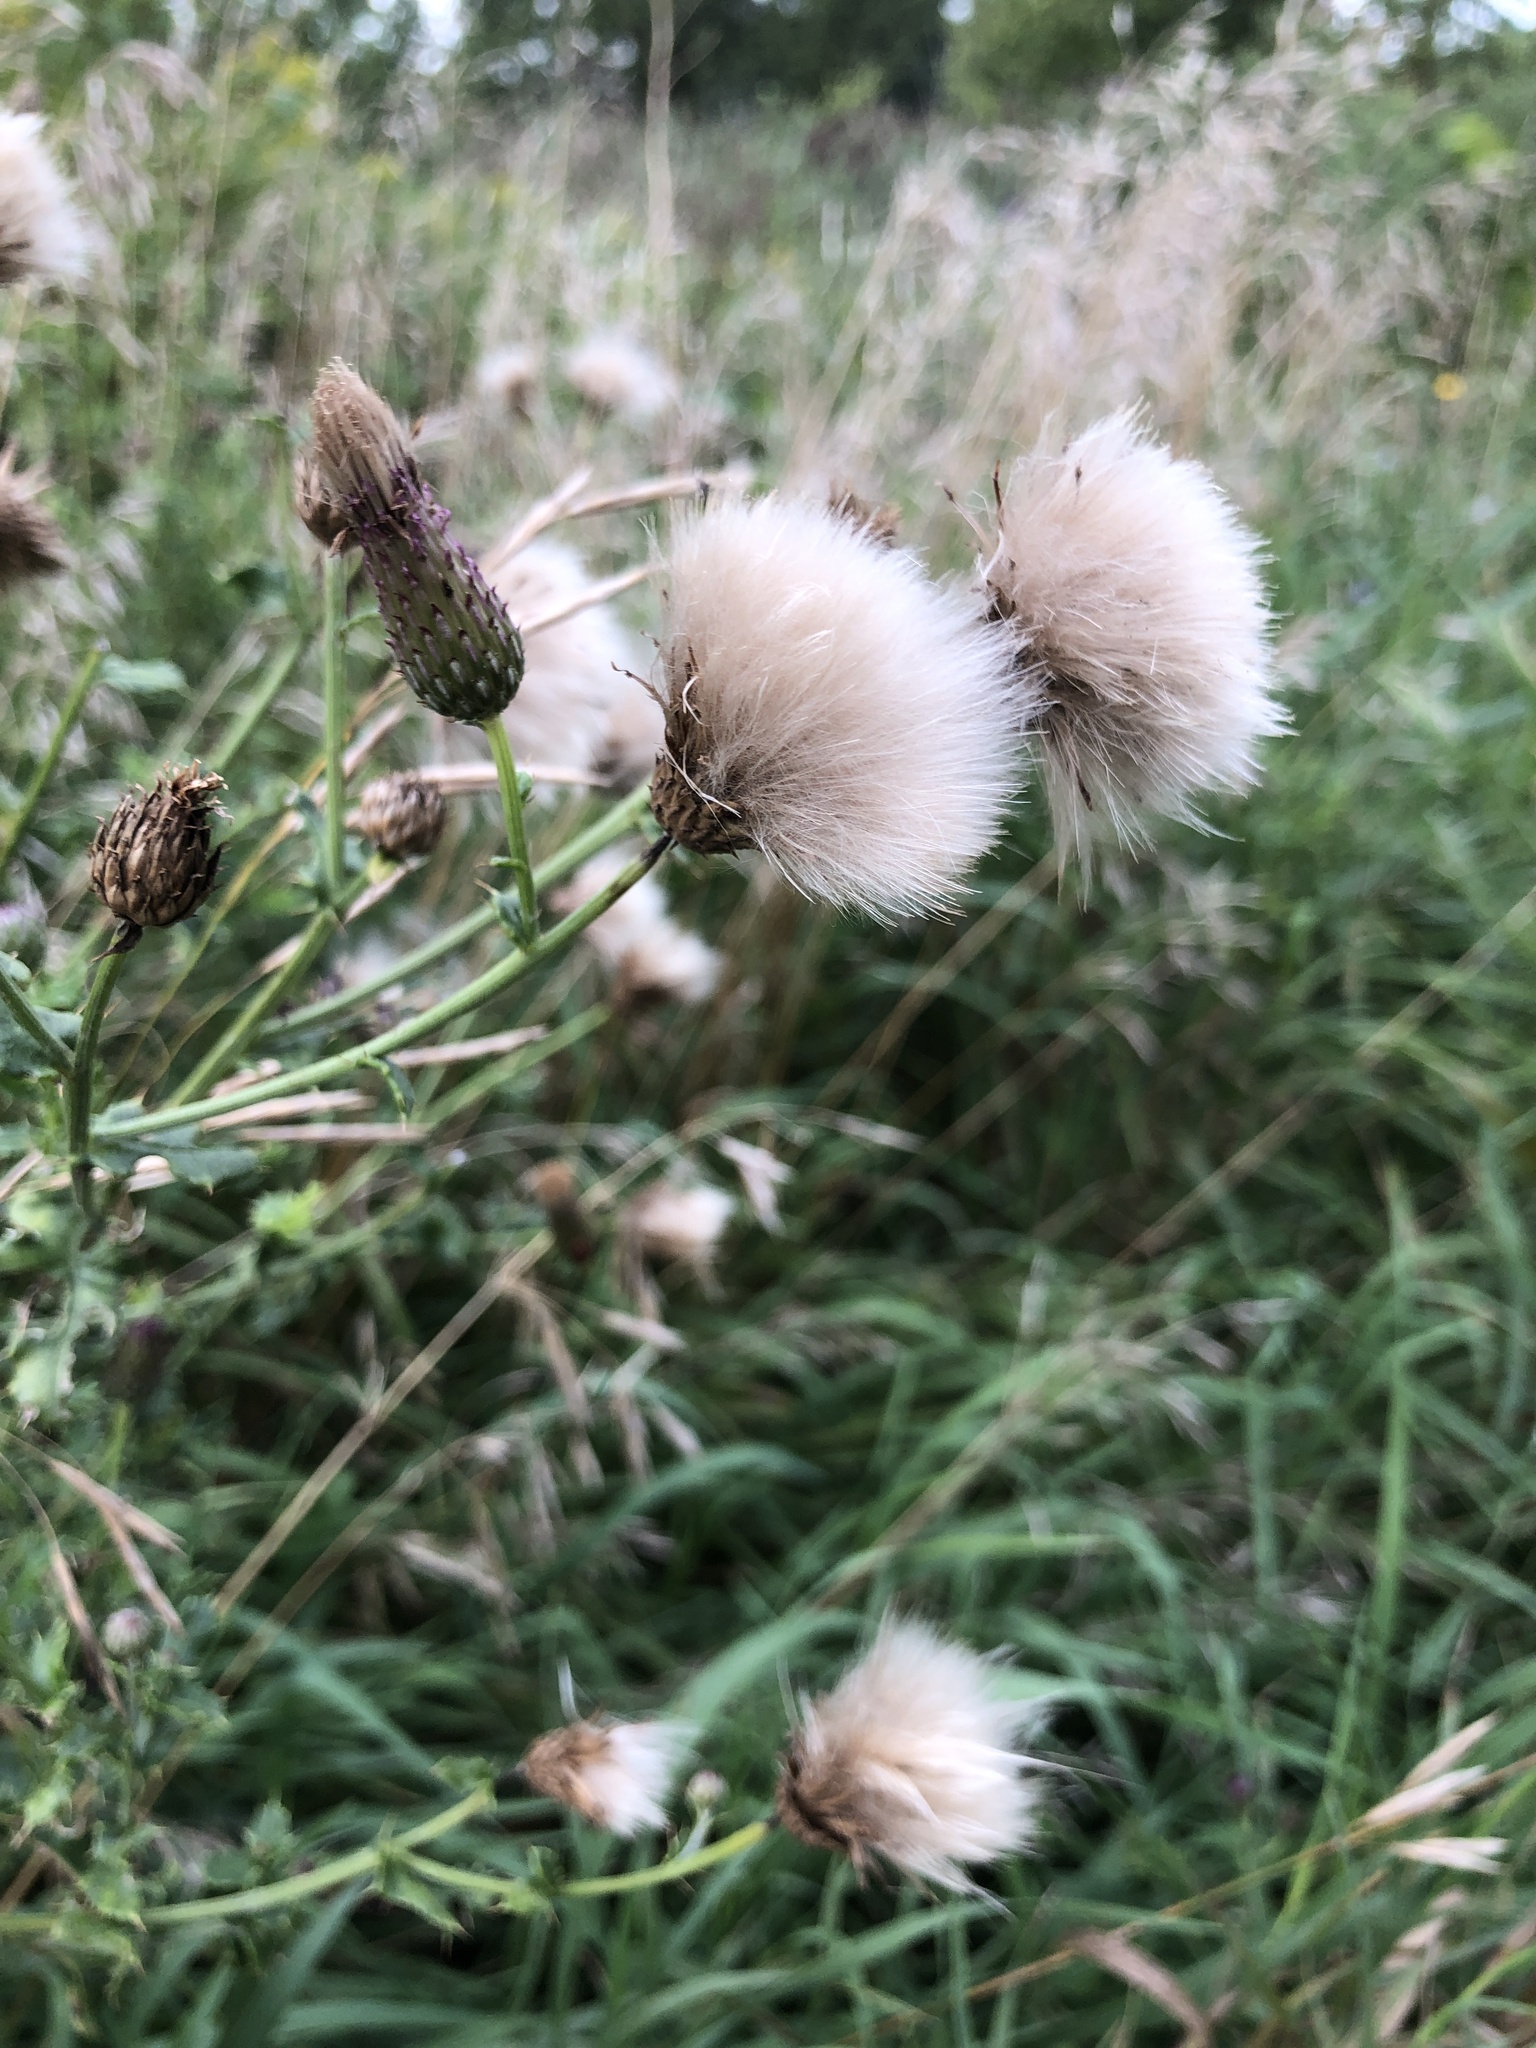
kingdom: Plantae
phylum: Tracheophyta
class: Magnoliopsida
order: Asterales
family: Asteraceae
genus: Cirsium
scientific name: Cirsium arvense
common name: Creeping thistle
